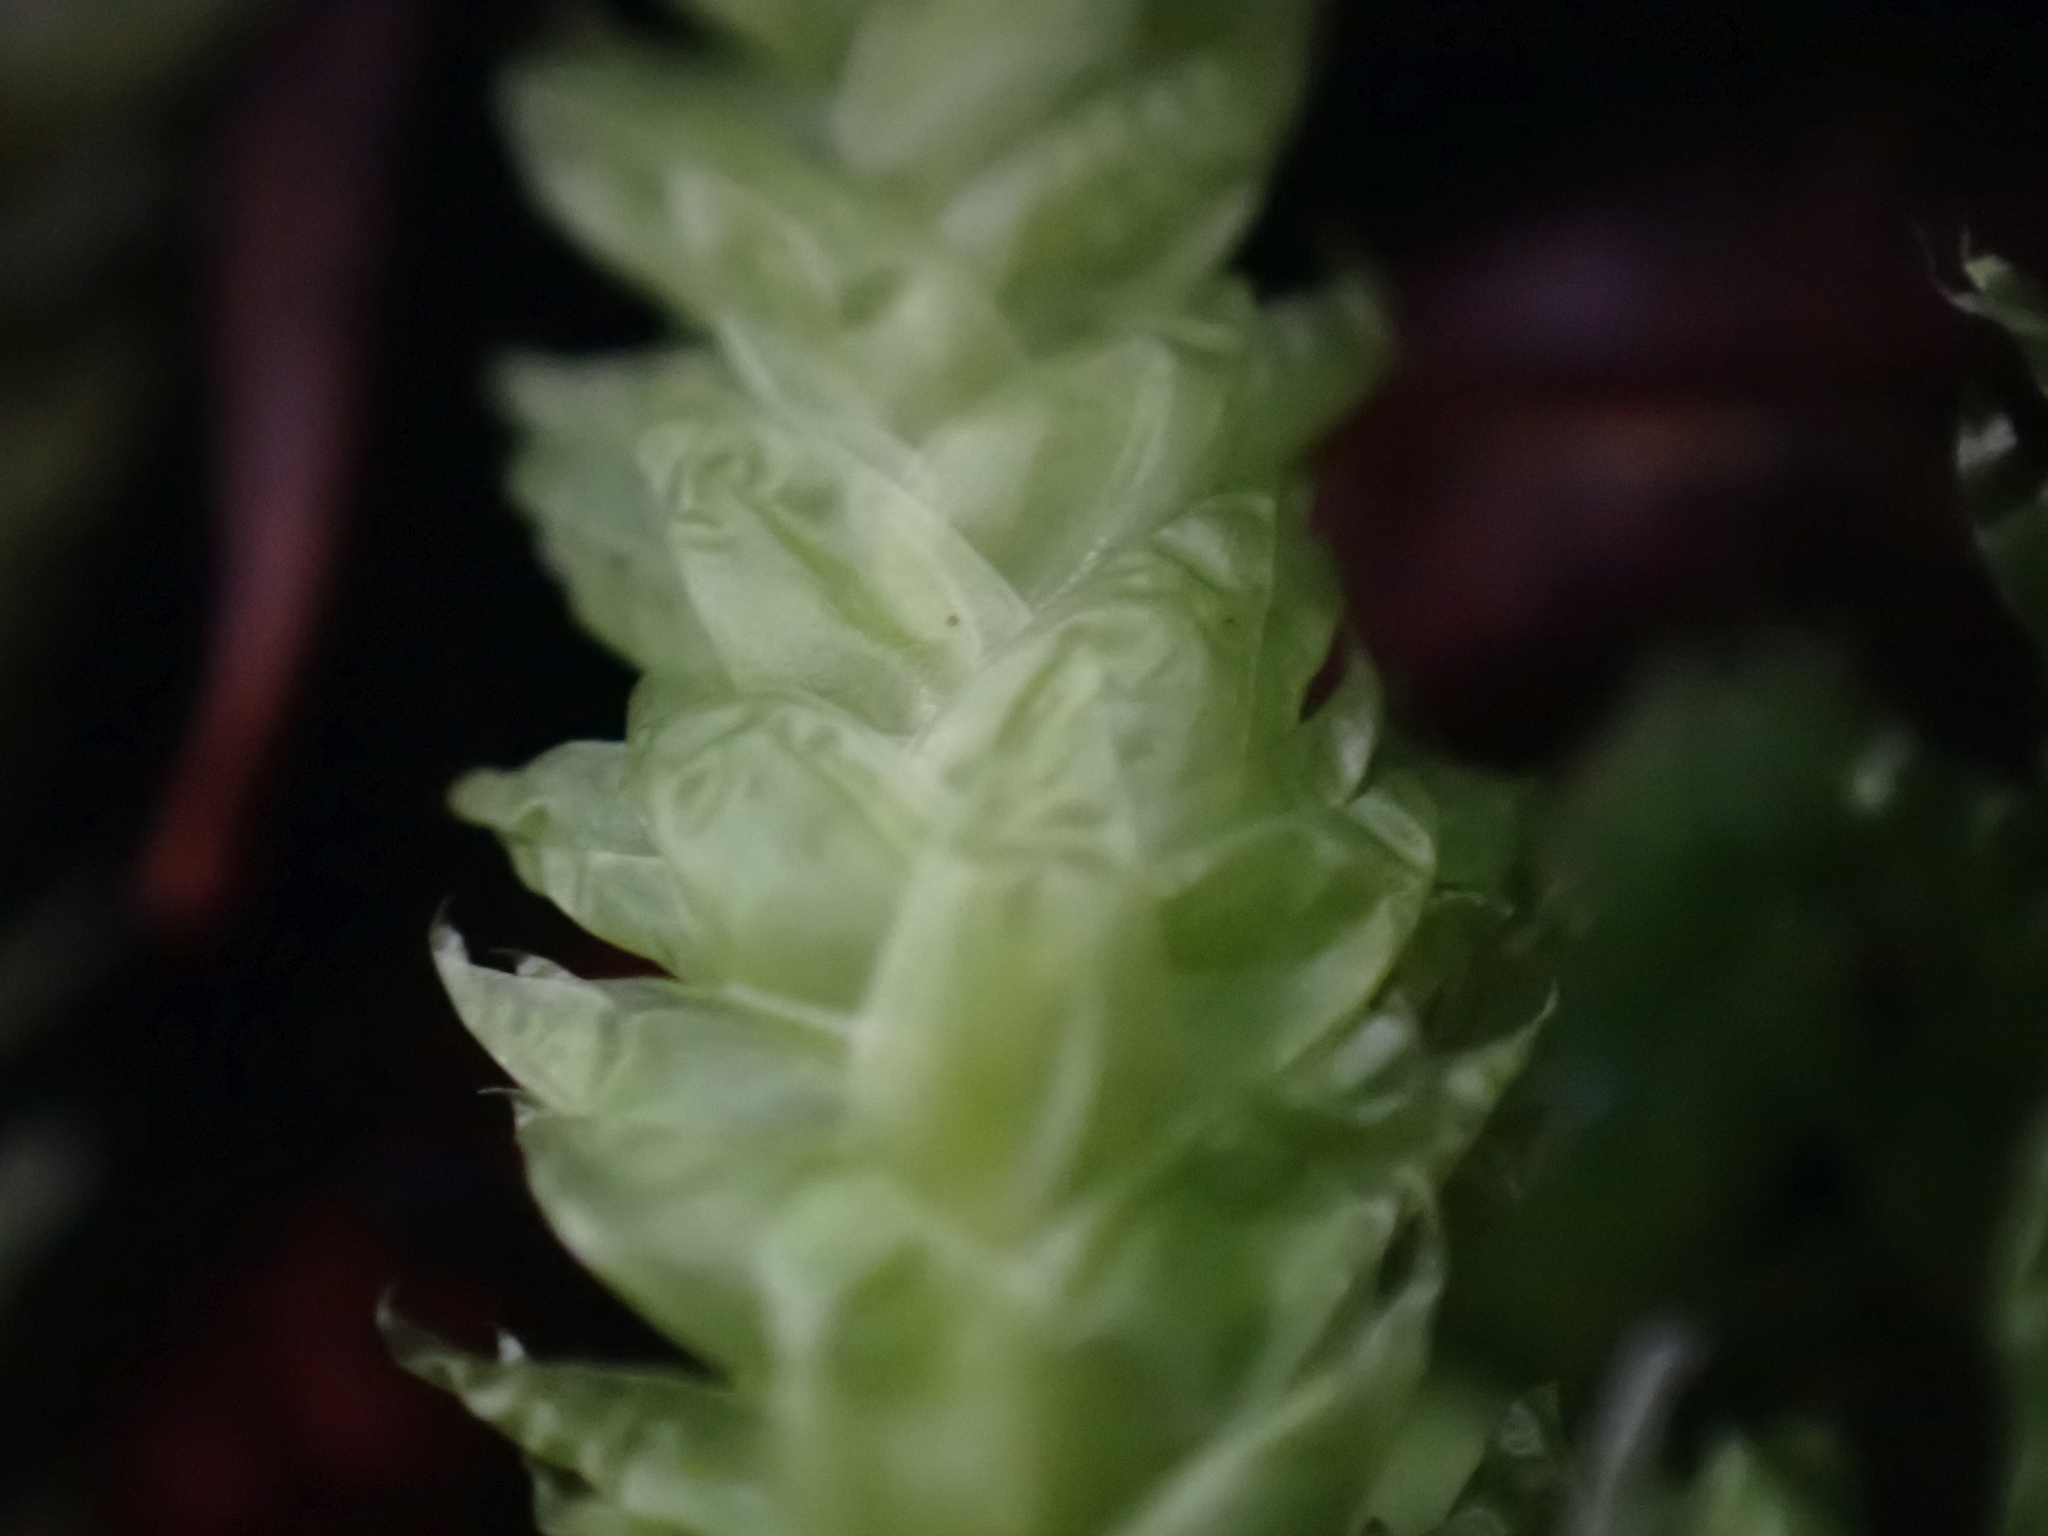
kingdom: Plantae
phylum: Bryophyta
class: Bryopsida
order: Hypnales
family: Plagiotheciaceae
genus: Plagiothecium
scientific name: Plagiothecium undulatum
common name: Waved silk-moss
